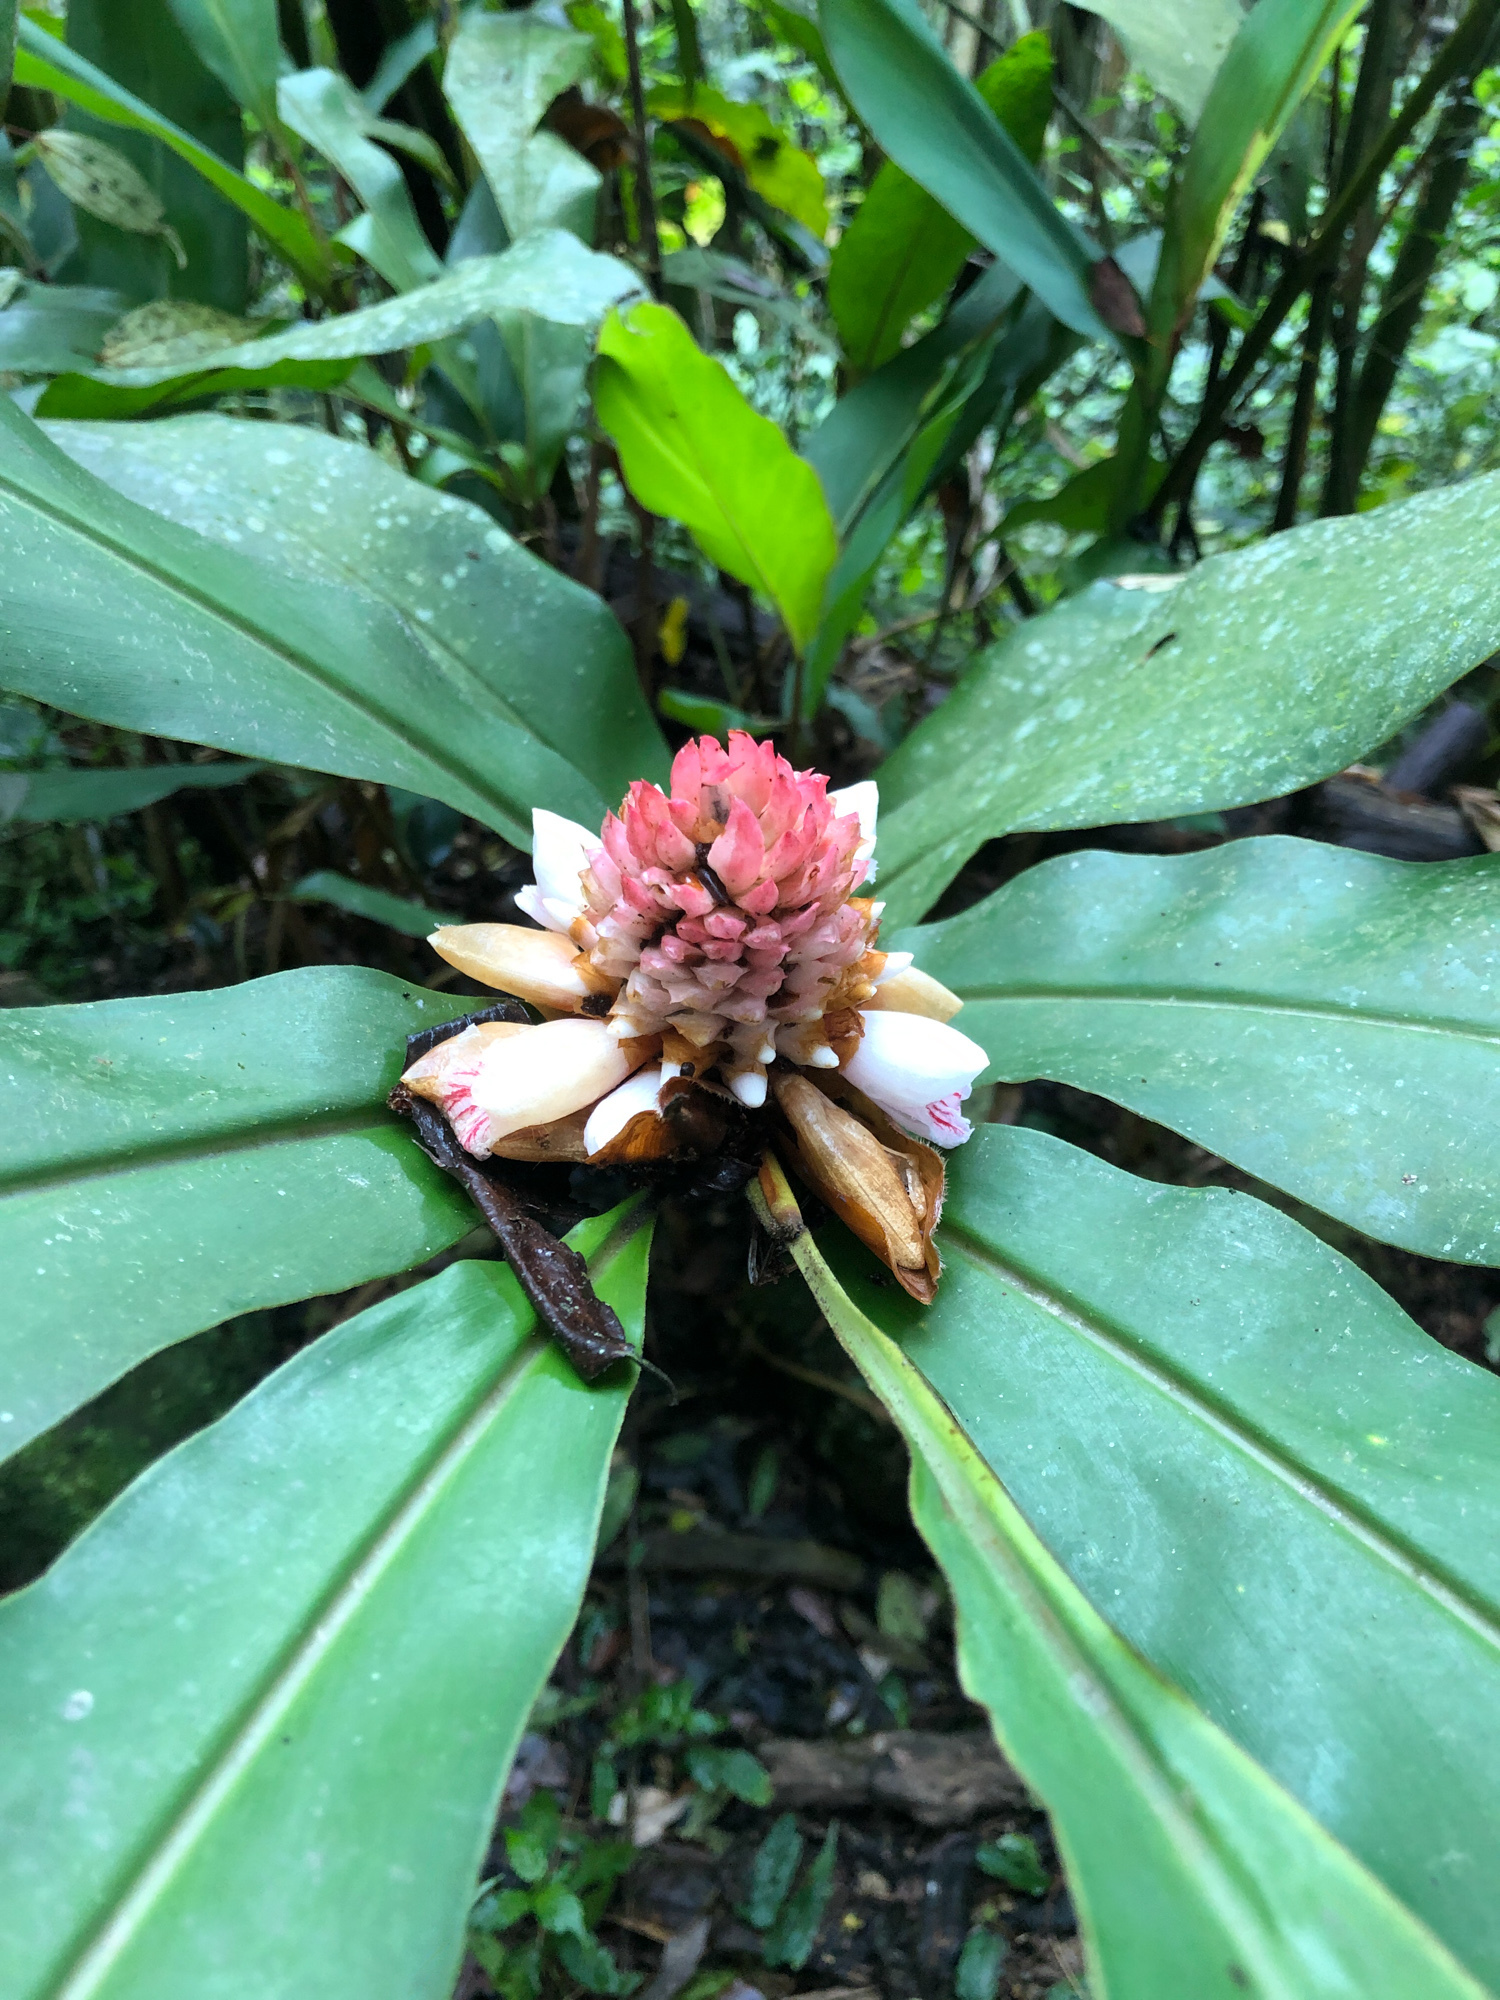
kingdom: Plantae
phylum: Tracheophyta
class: Liliopsida
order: Zingiberales
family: Zingiberaceae
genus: Alpinia
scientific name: Alpinia sessiliflora
